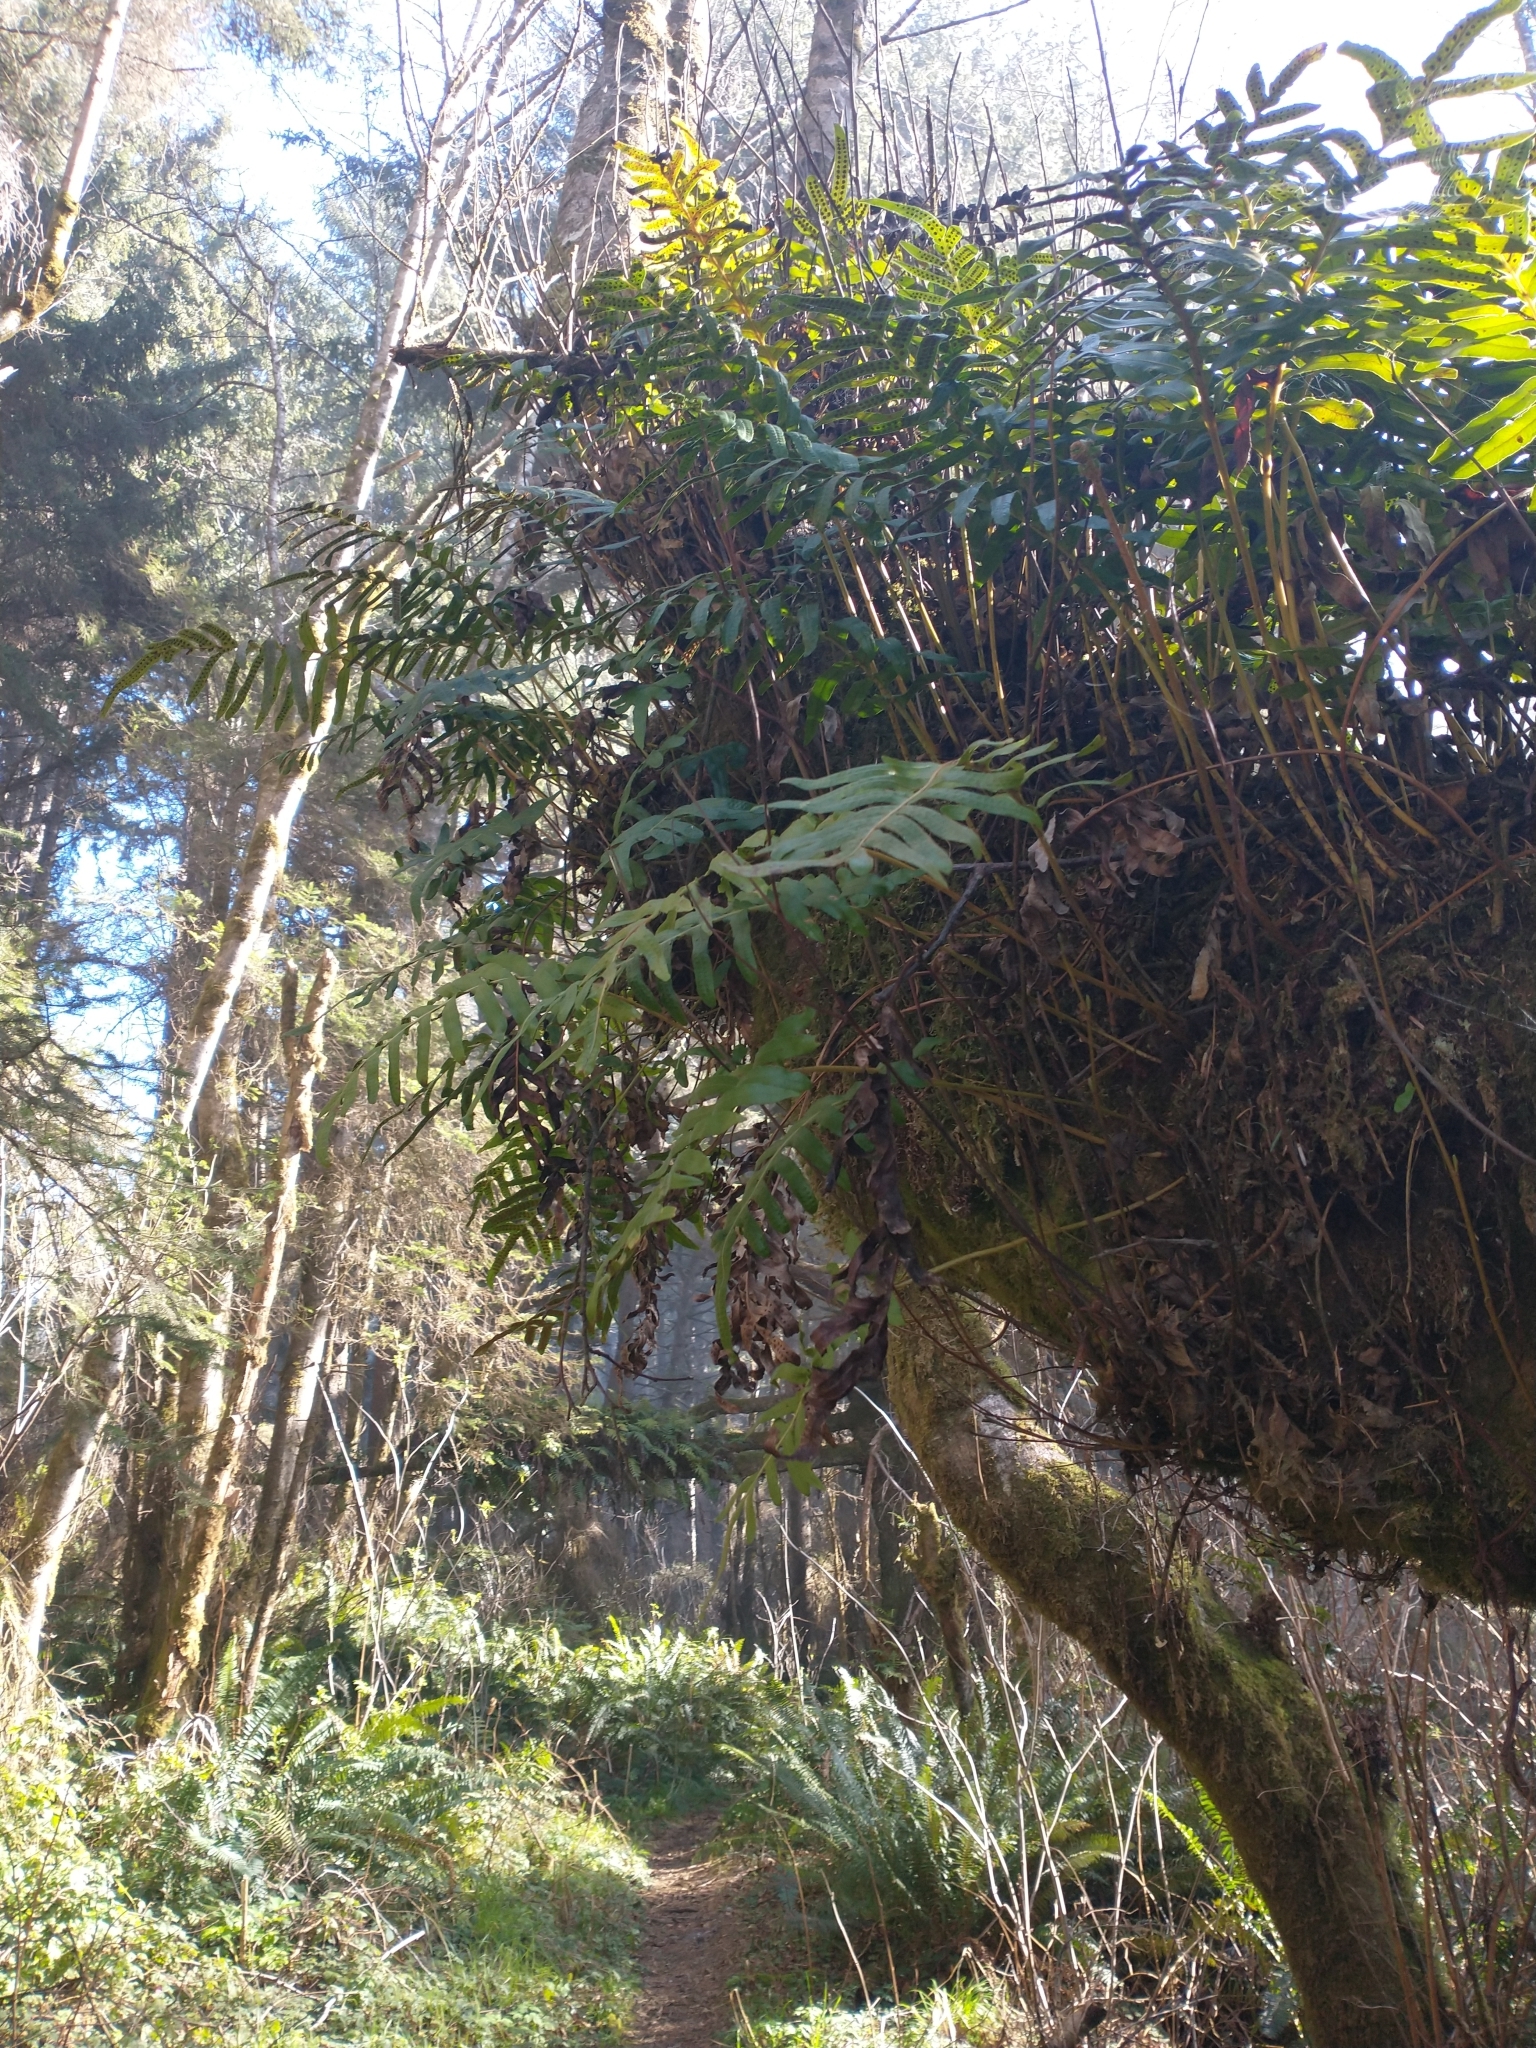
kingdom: Plantae
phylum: Tracheophyta
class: Polypodiopsida
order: Polypodiales
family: Polypodiaceae
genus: Polypodium
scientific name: Polypodium scouleri
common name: Scouler's polypody
